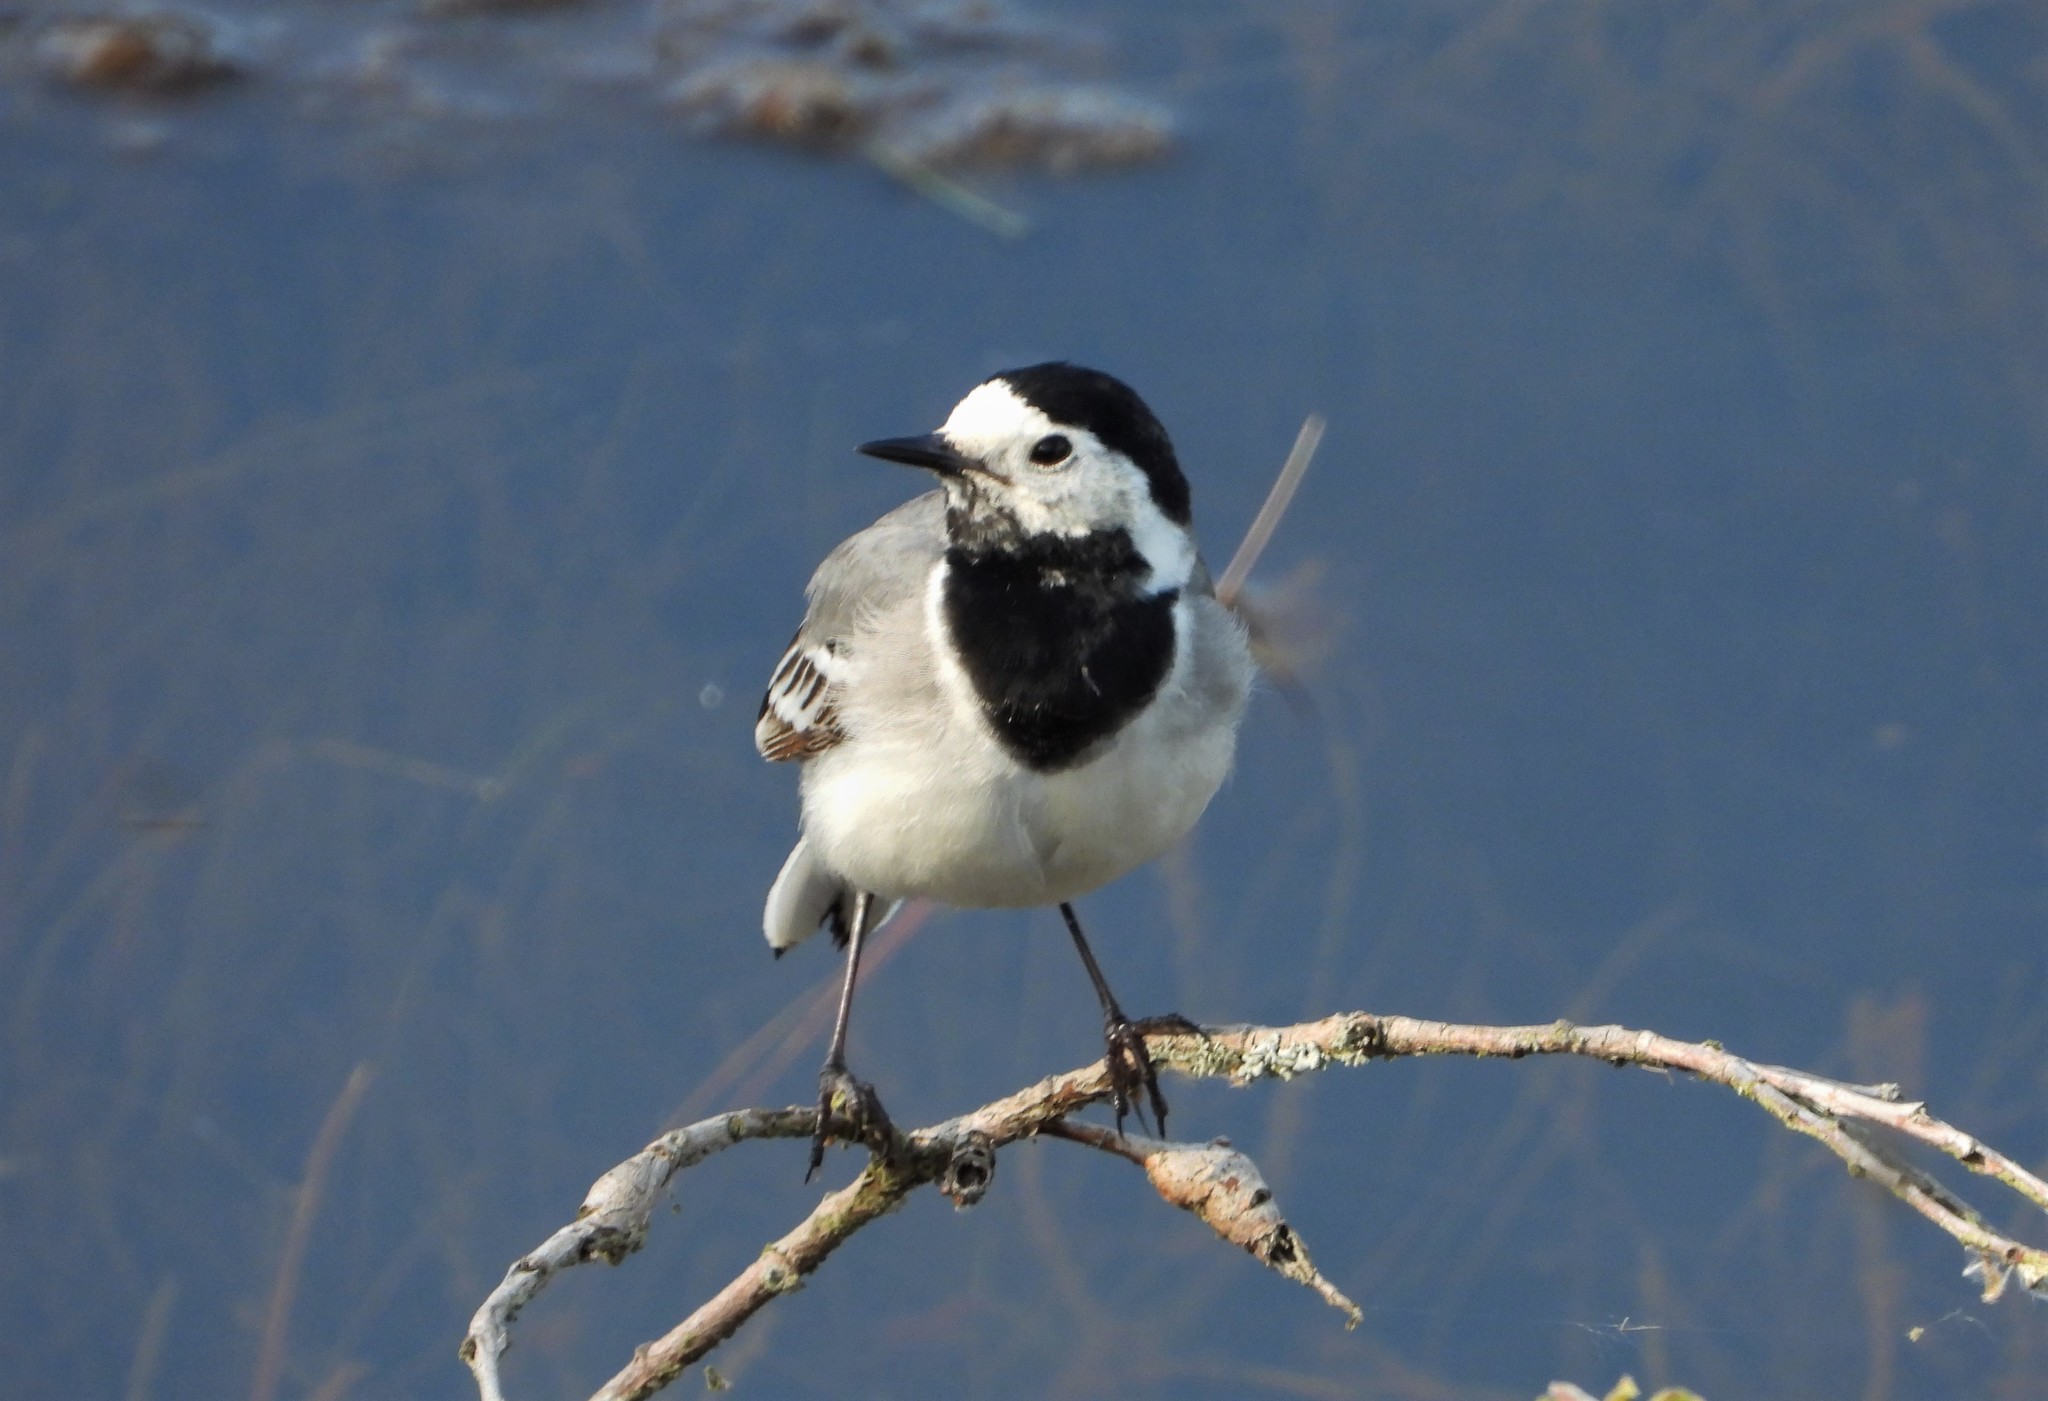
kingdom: Animalia
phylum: Chordata
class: Aves
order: Passeriformes
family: Motacillidae
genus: Motacilla
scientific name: Motacilla alba
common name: White wagtail
